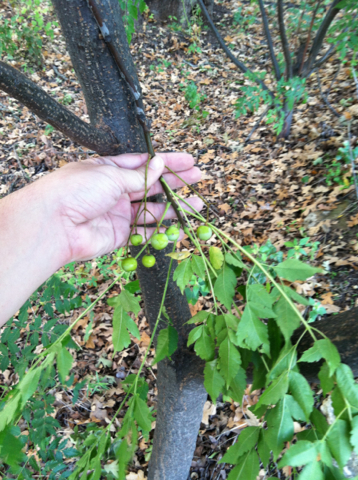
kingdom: Plantae
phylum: Tracheophyta
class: Magnoliopsida
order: Sapindales
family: Meliaceae
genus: Melia
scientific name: Melia azedarach
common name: Chinaberrytree
